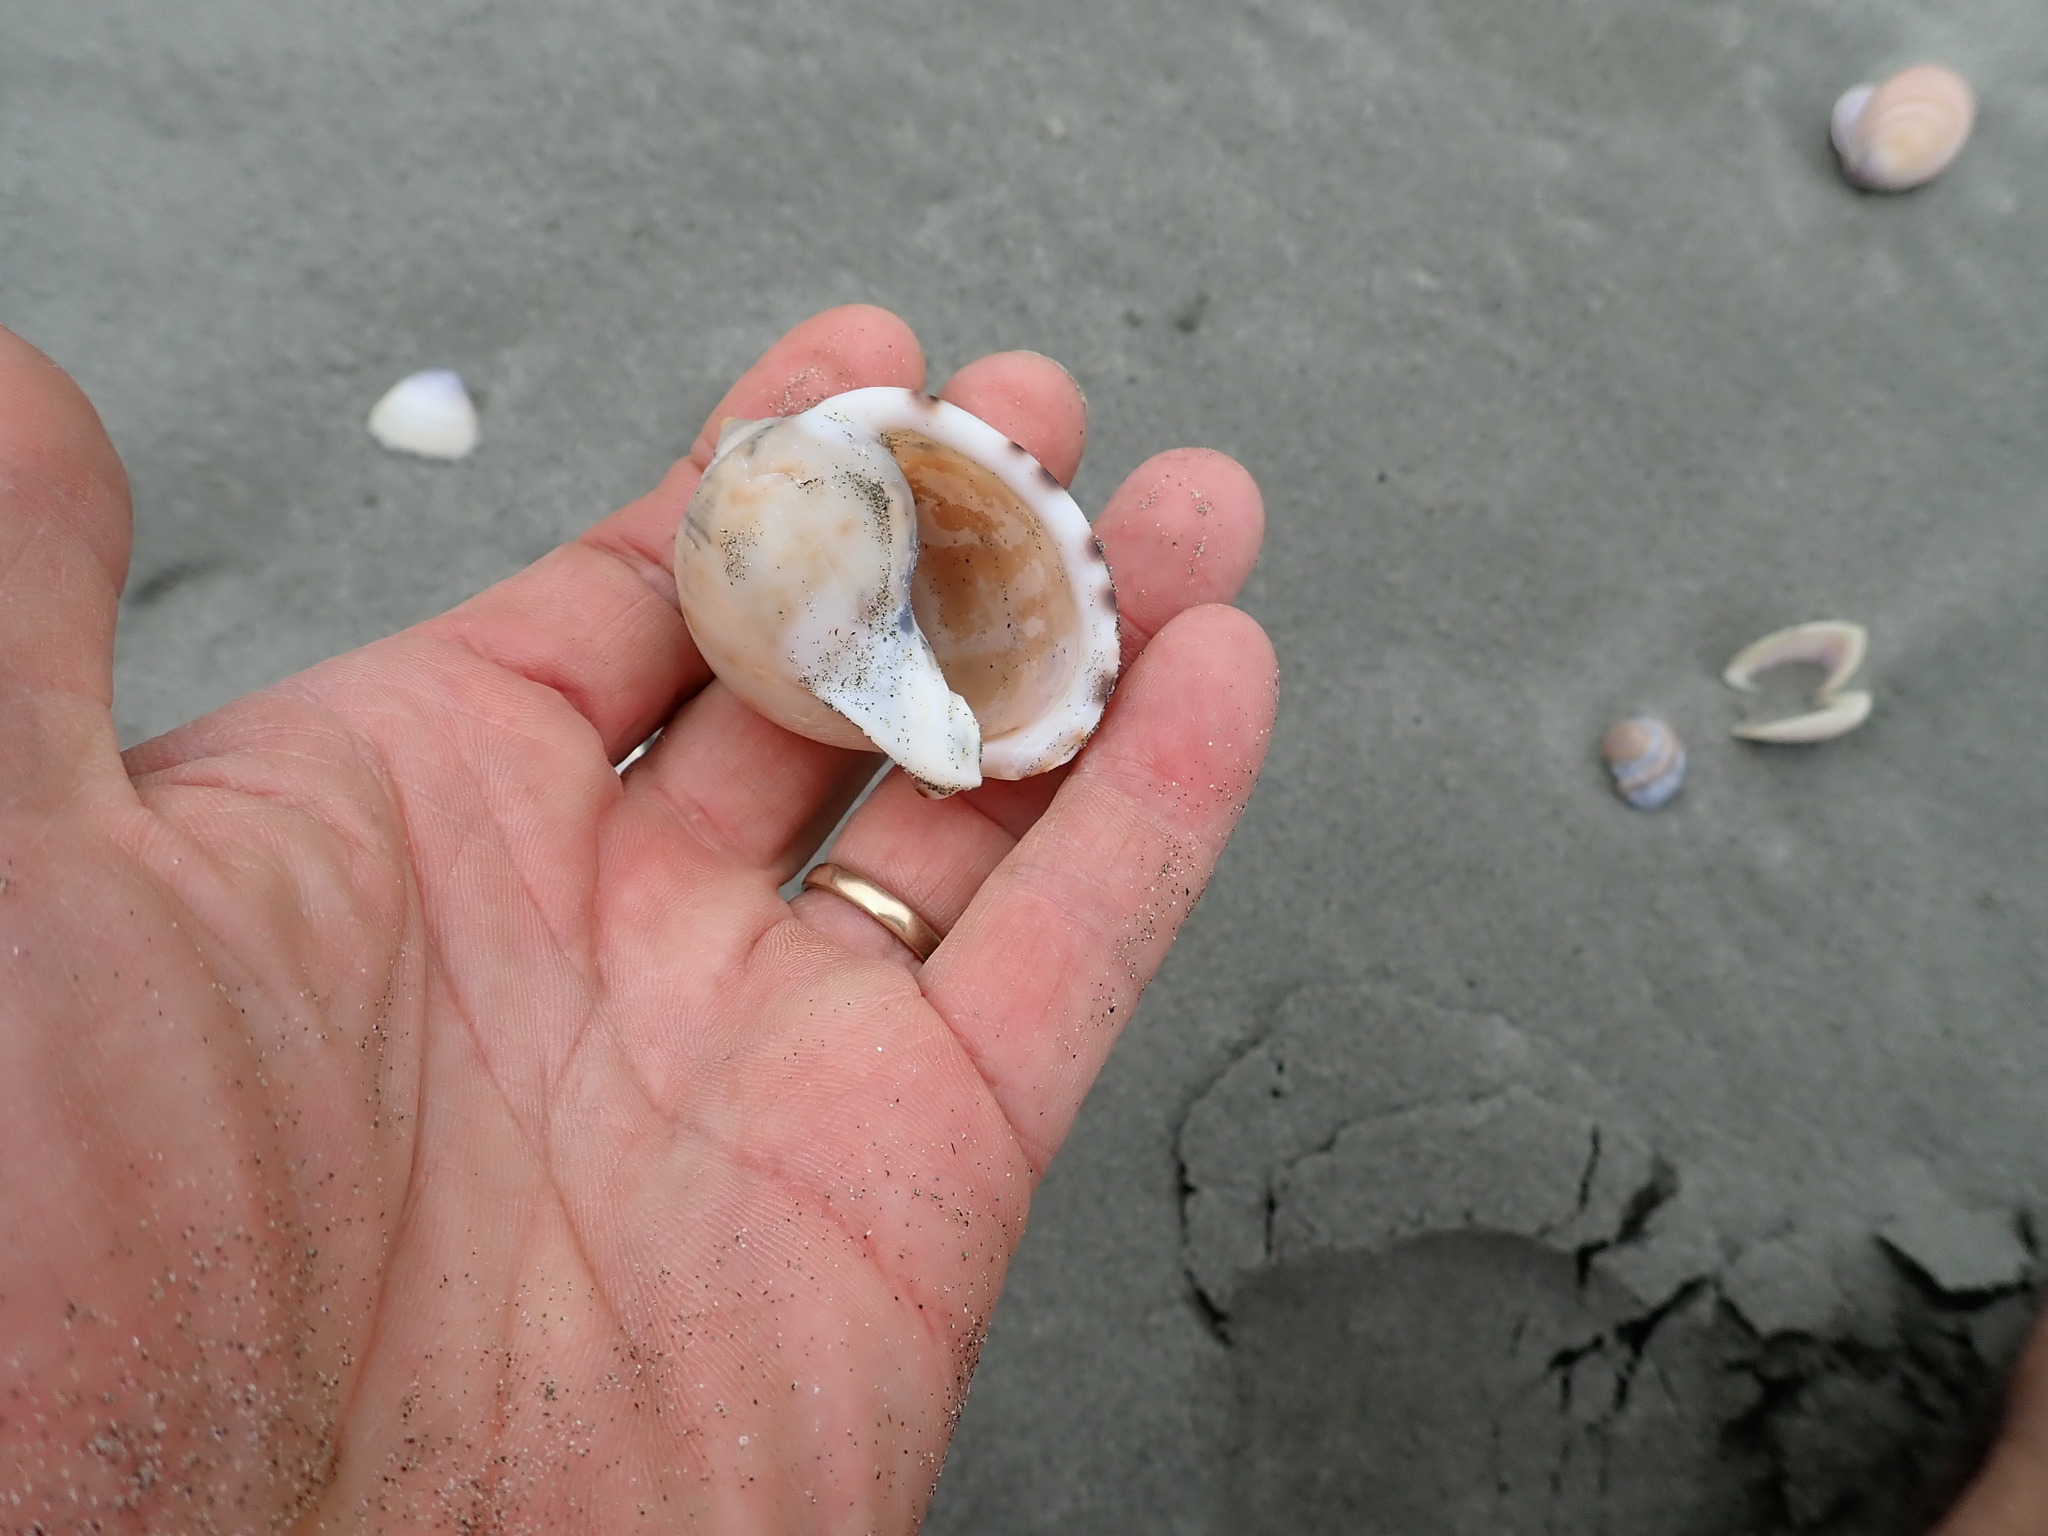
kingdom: Animalia
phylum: Mollusca
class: Gastropoda
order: Littorinimorpha
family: Cassidae
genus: Semicassis
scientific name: Semicassis pyrum
